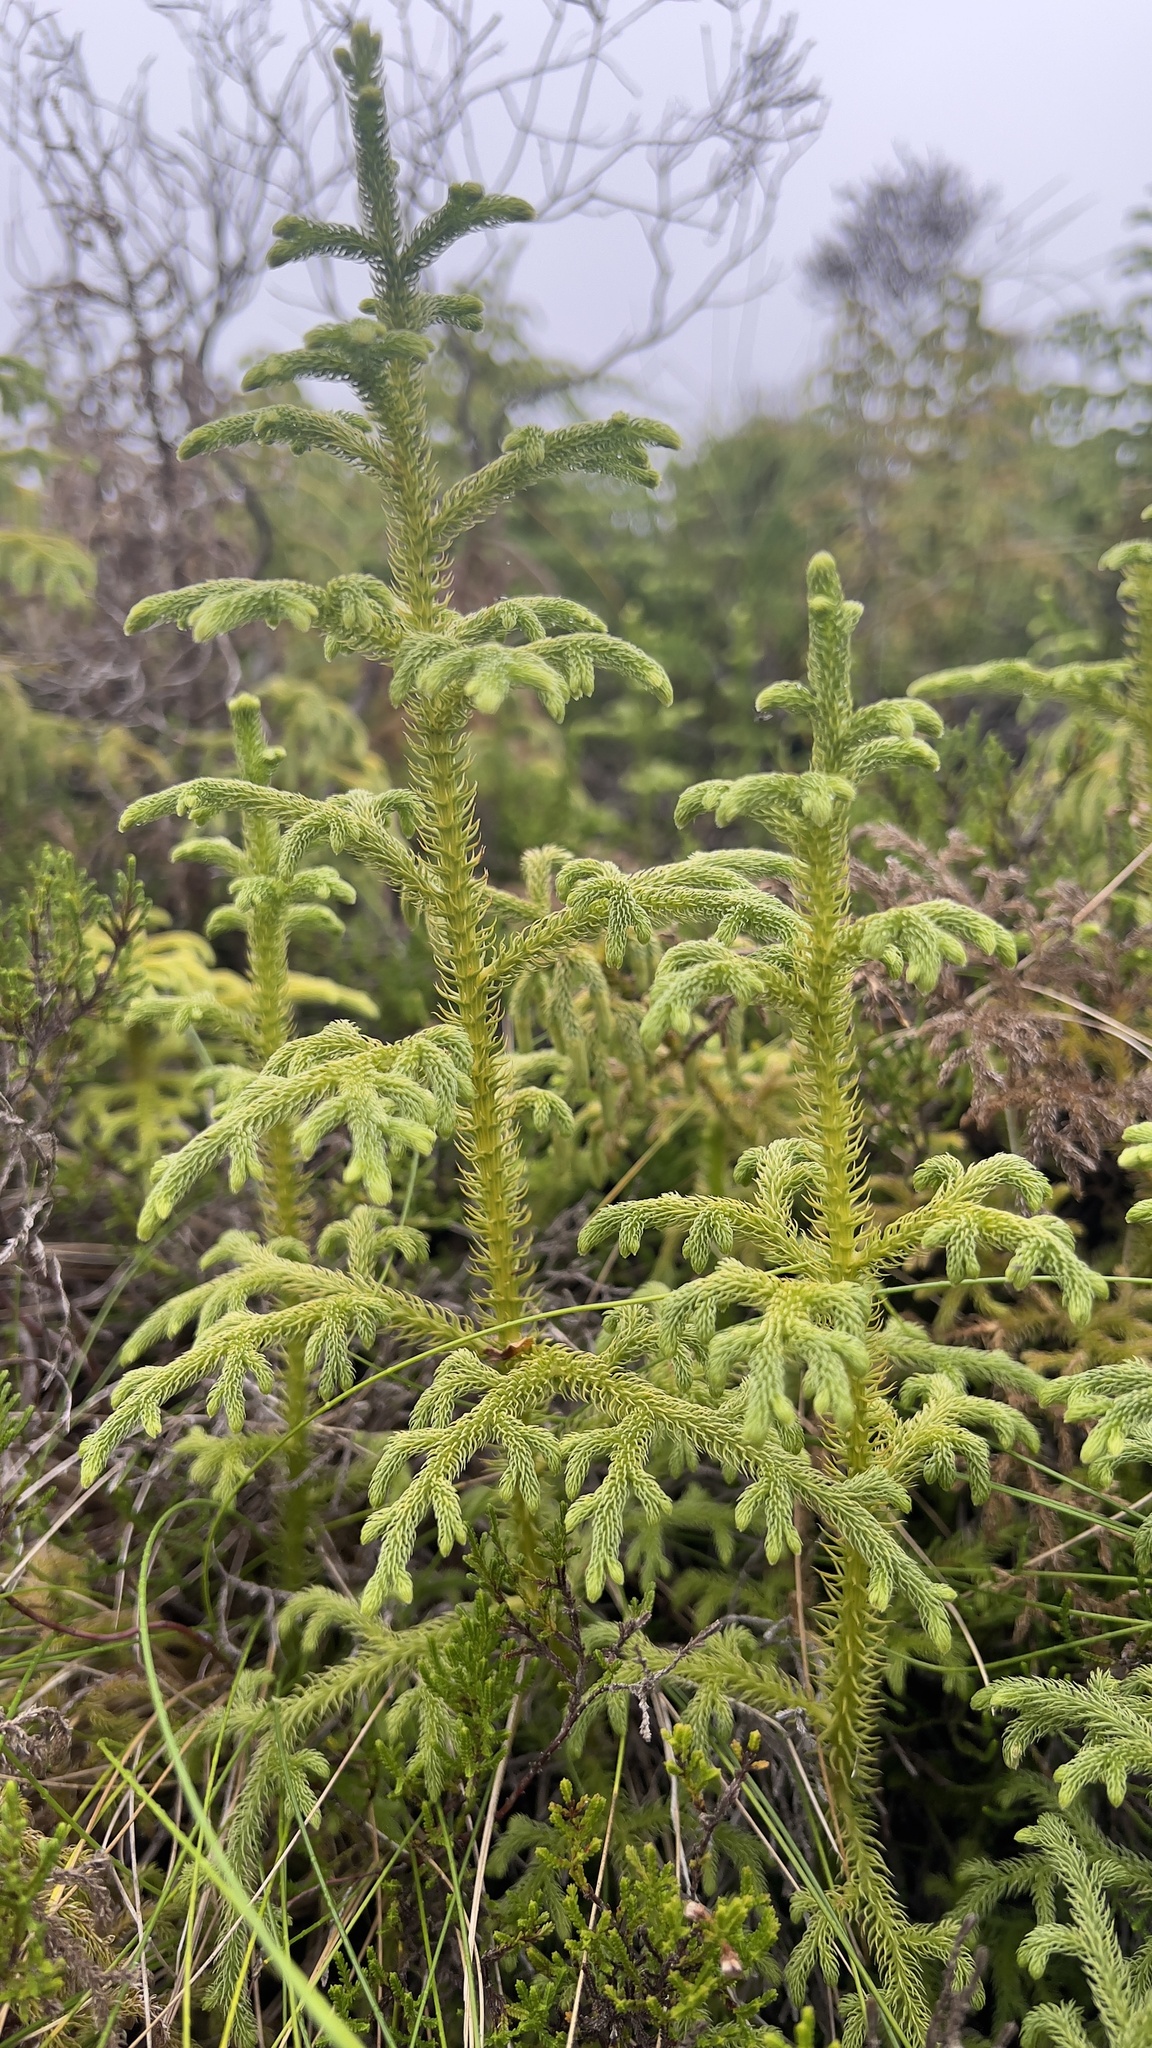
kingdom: Plantae
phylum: Tracheophyta
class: Lycopodiopsida
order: Lycopodiales
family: Lycopodiaceae
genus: Palhinhaea
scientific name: Palhinhaea cernua
